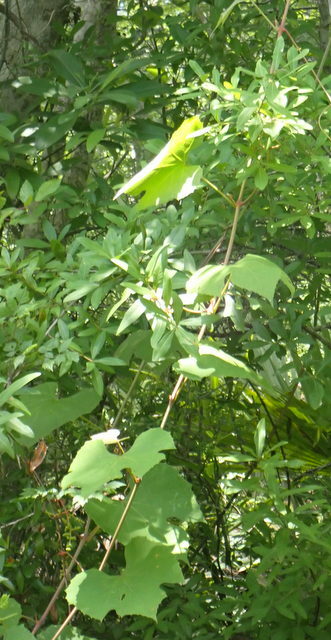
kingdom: Plantae
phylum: Tracheophyta
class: Magnoliopsida
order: Vitales
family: Vitaceae
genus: Vitis
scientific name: Vitis aestivalis
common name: Pigeon grape
